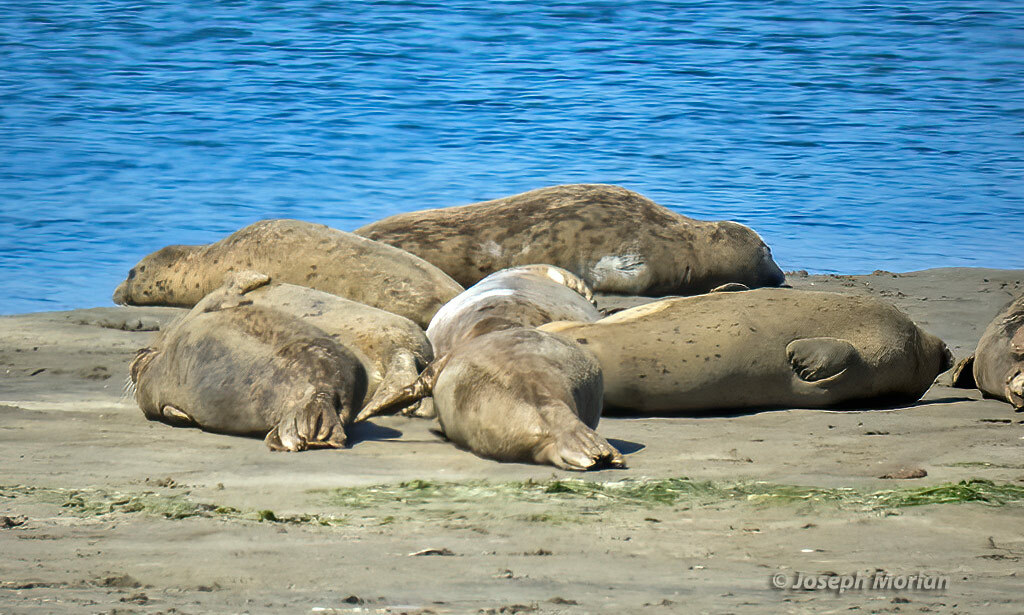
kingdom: Animalia
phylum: Chordata
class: Mammalia
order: Carnivora
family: Phocidae
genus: Phoca
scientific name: Phoca vitulina
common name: Harbor seal
